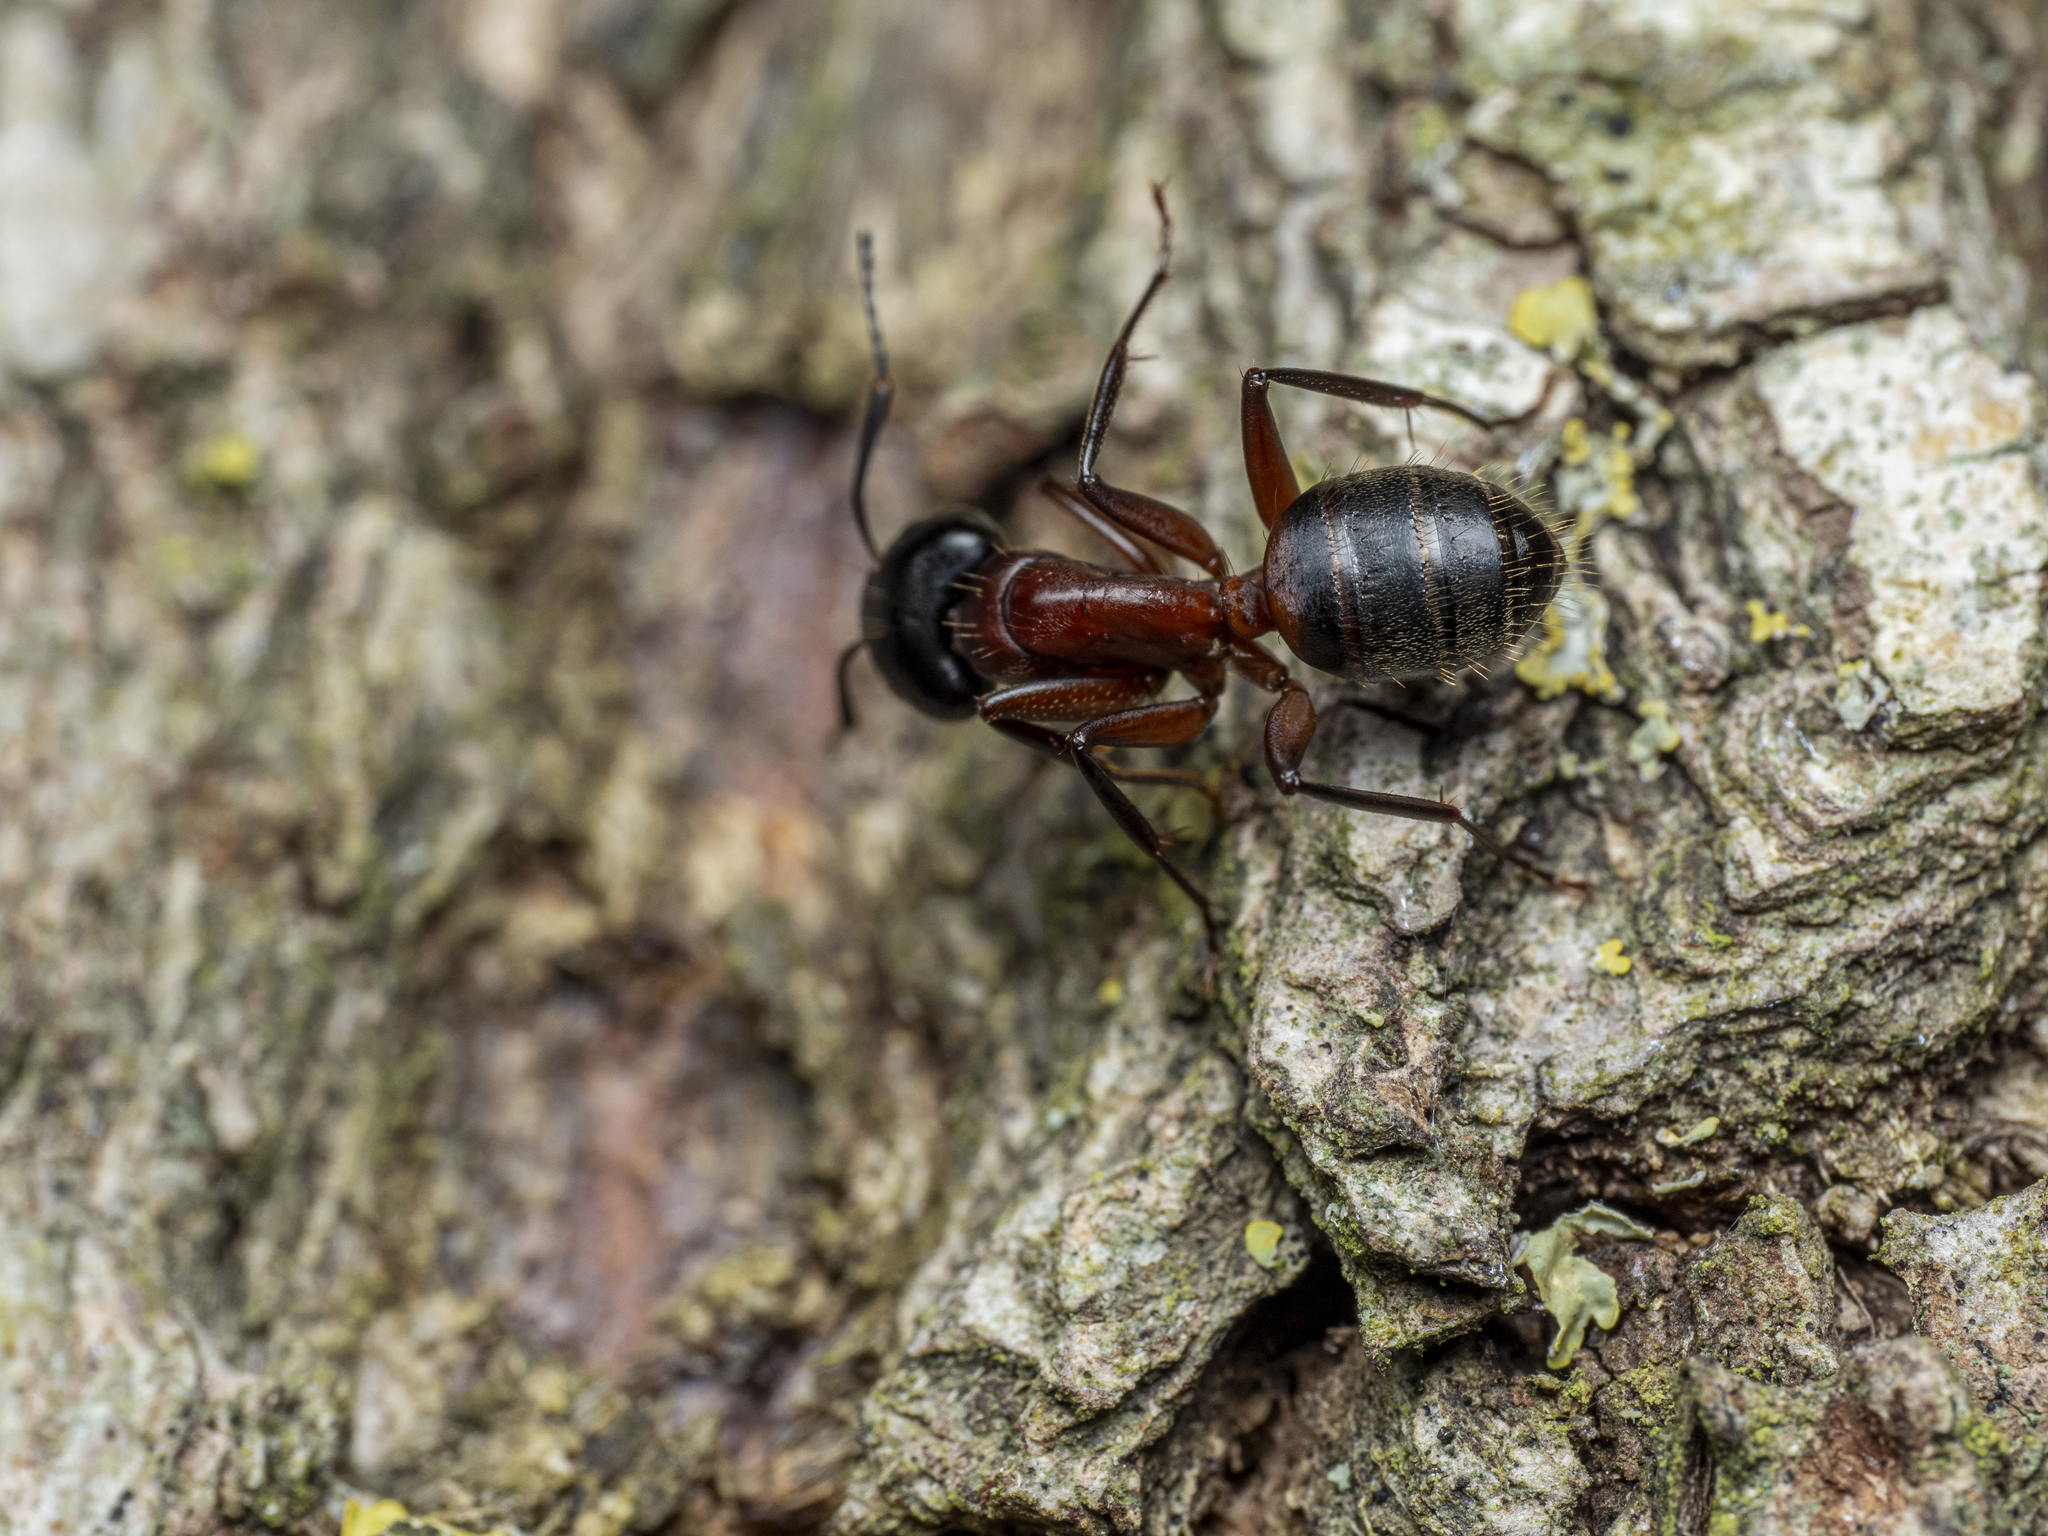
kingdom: Animalia
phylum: Arthropoda
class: Insecta
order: Hymenoptera
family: Formicidae
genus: Camponotus
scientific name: Camponotus ligniperdus
